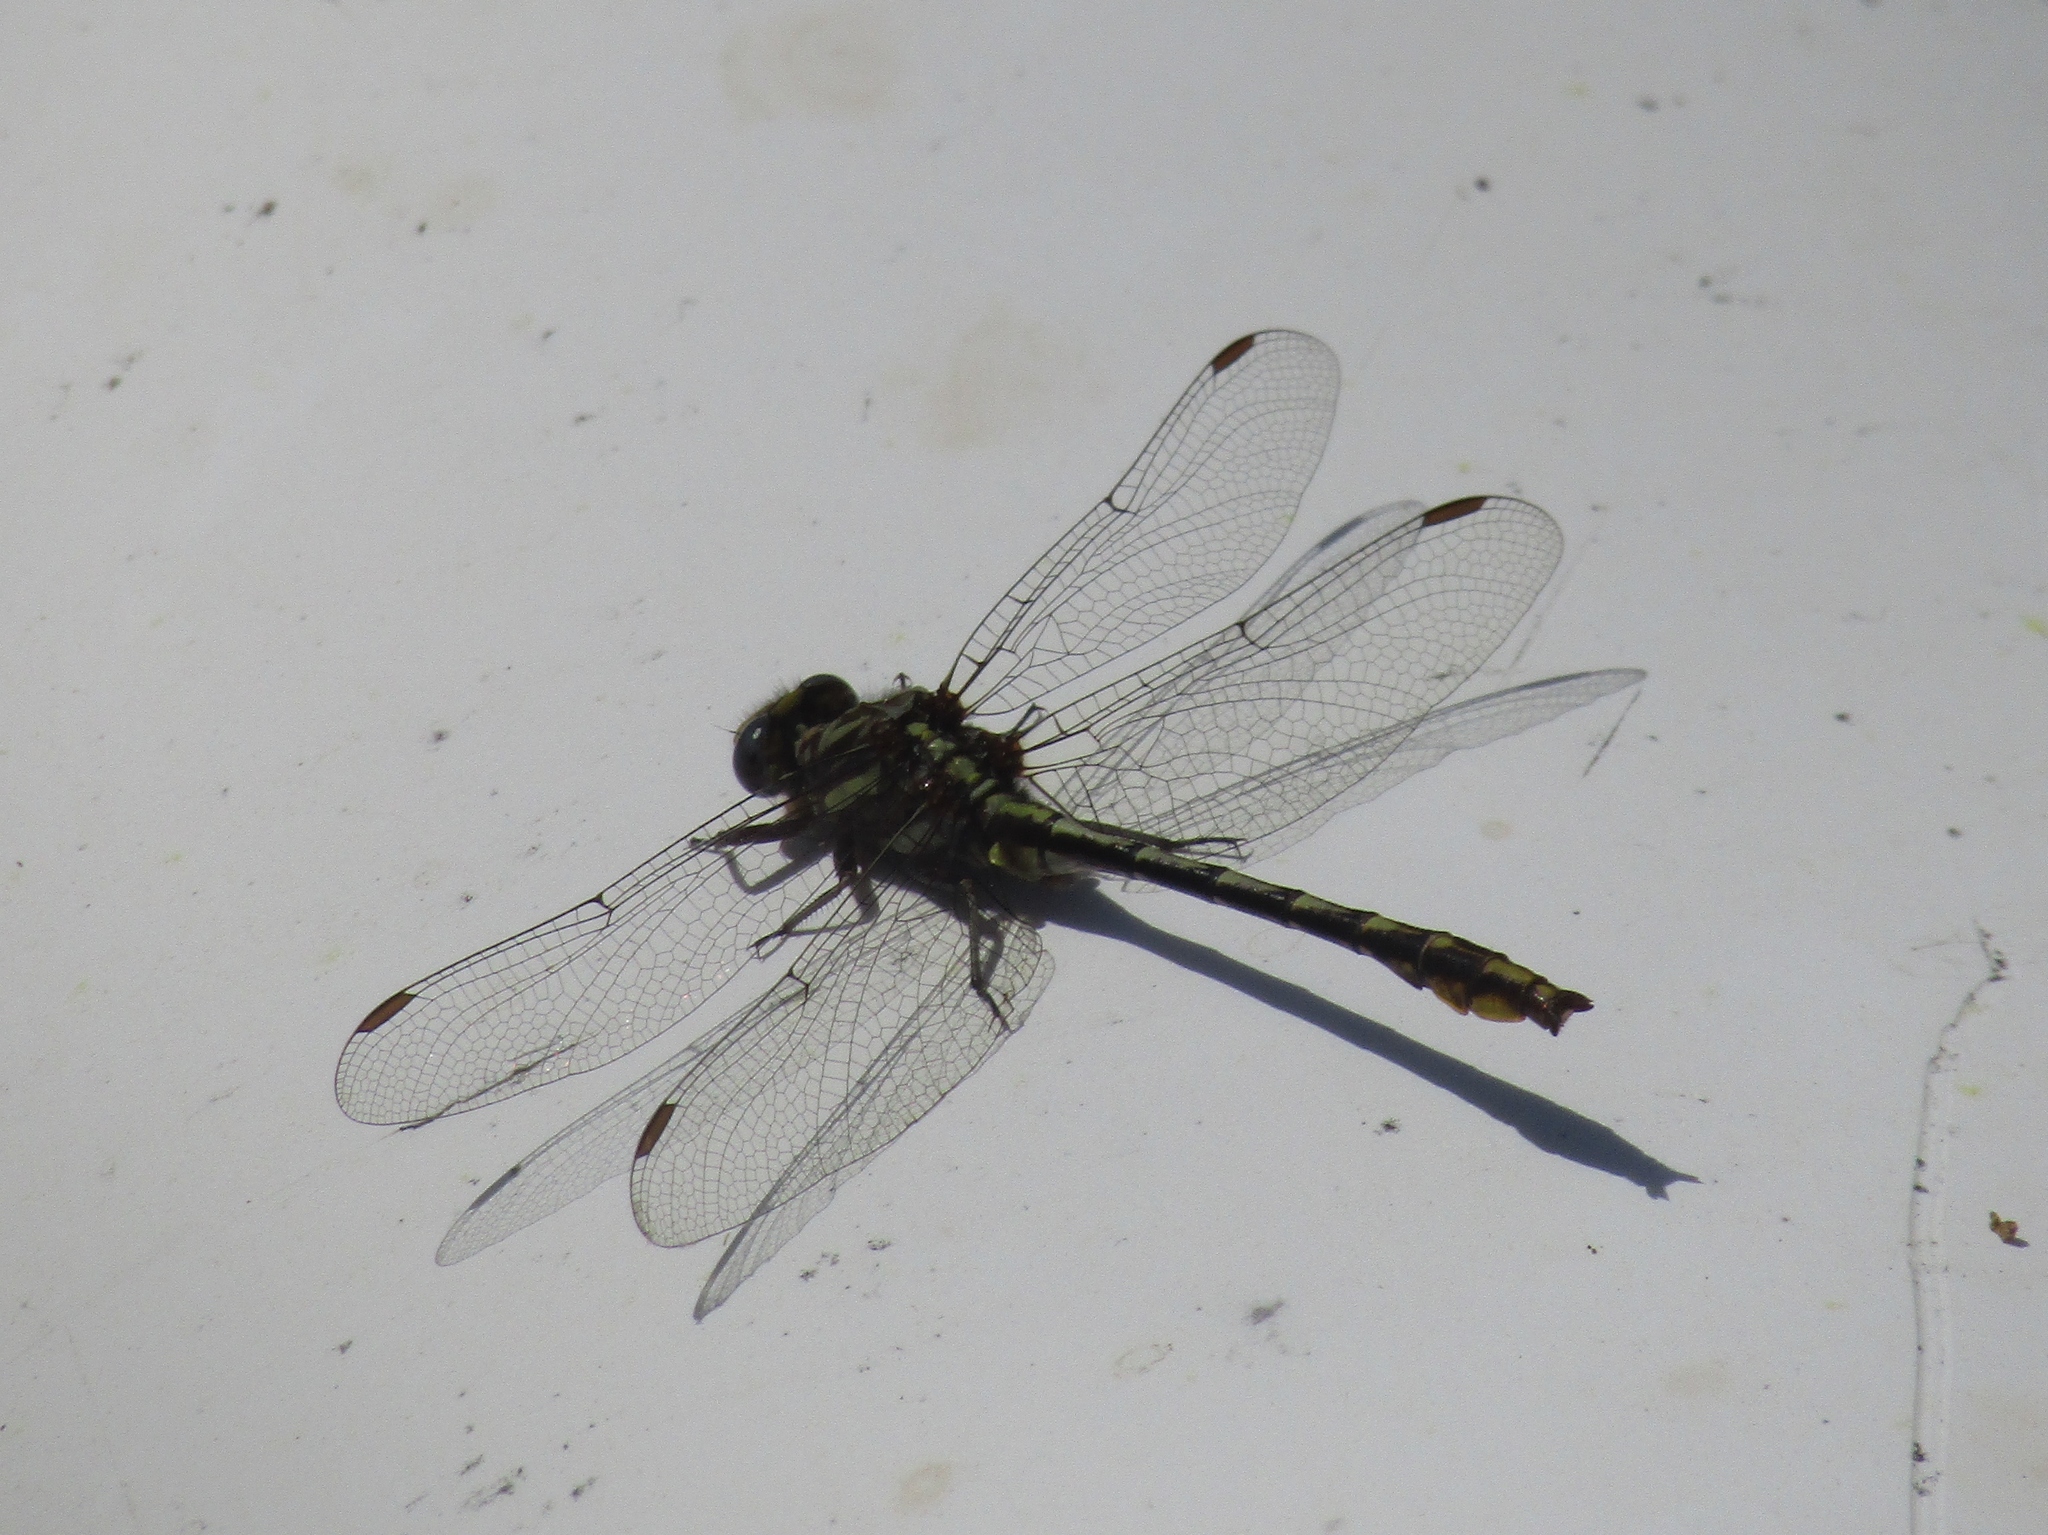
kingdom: Animalia
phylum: Arthropoda
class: Insecta
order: Odonata
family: Gomphidae
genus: Phanogomphus
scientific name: Phanogomphus exilis
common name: Lancet clubtail
